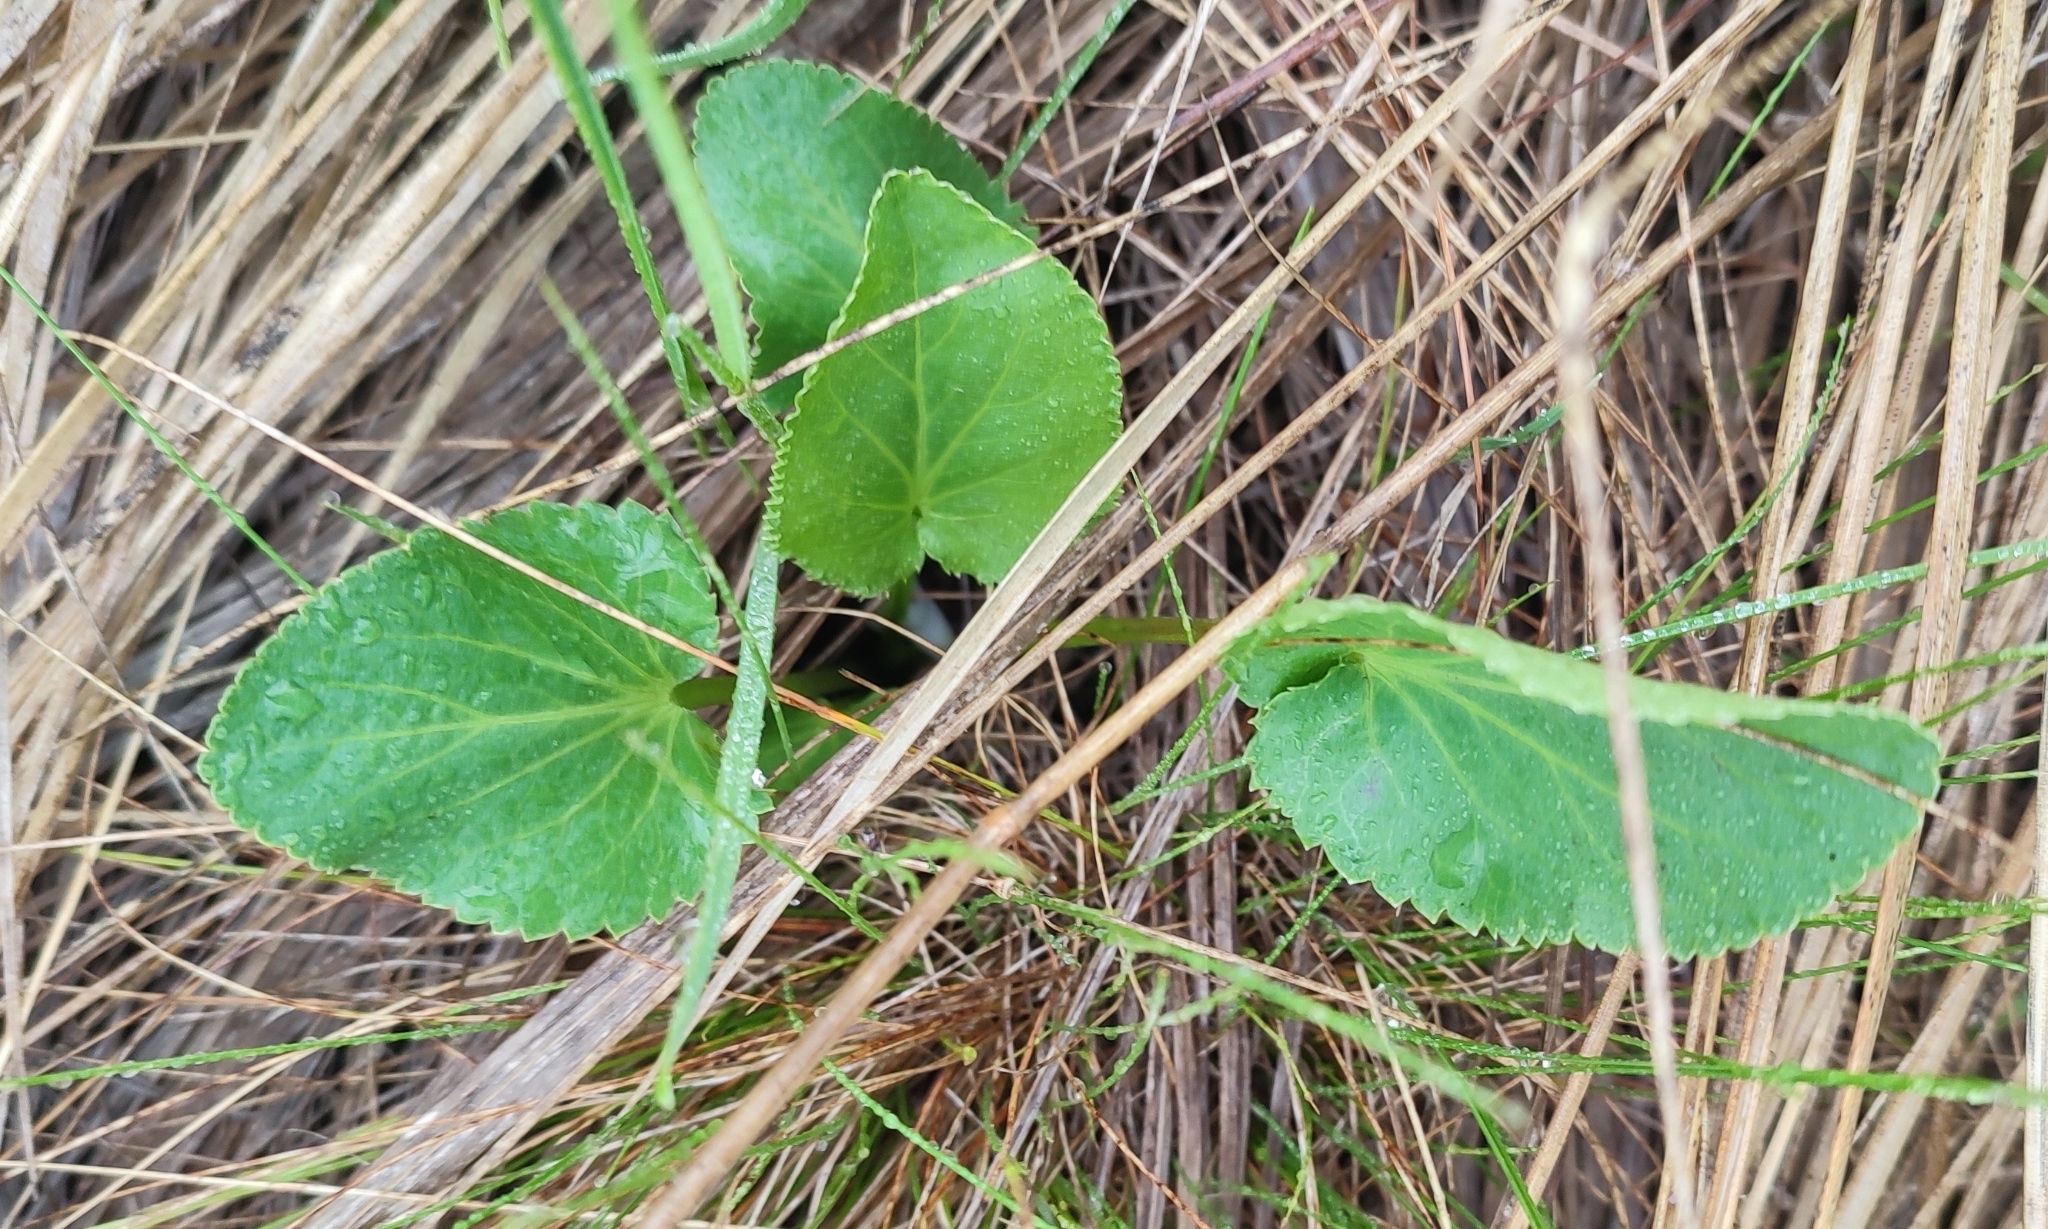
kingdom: Plantae
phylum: Tracheophyta
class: Magnoliopsida
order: Apiales
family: Apiaceae
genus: Eryngium
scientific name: Eryngium planum
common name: Blue eryngo
